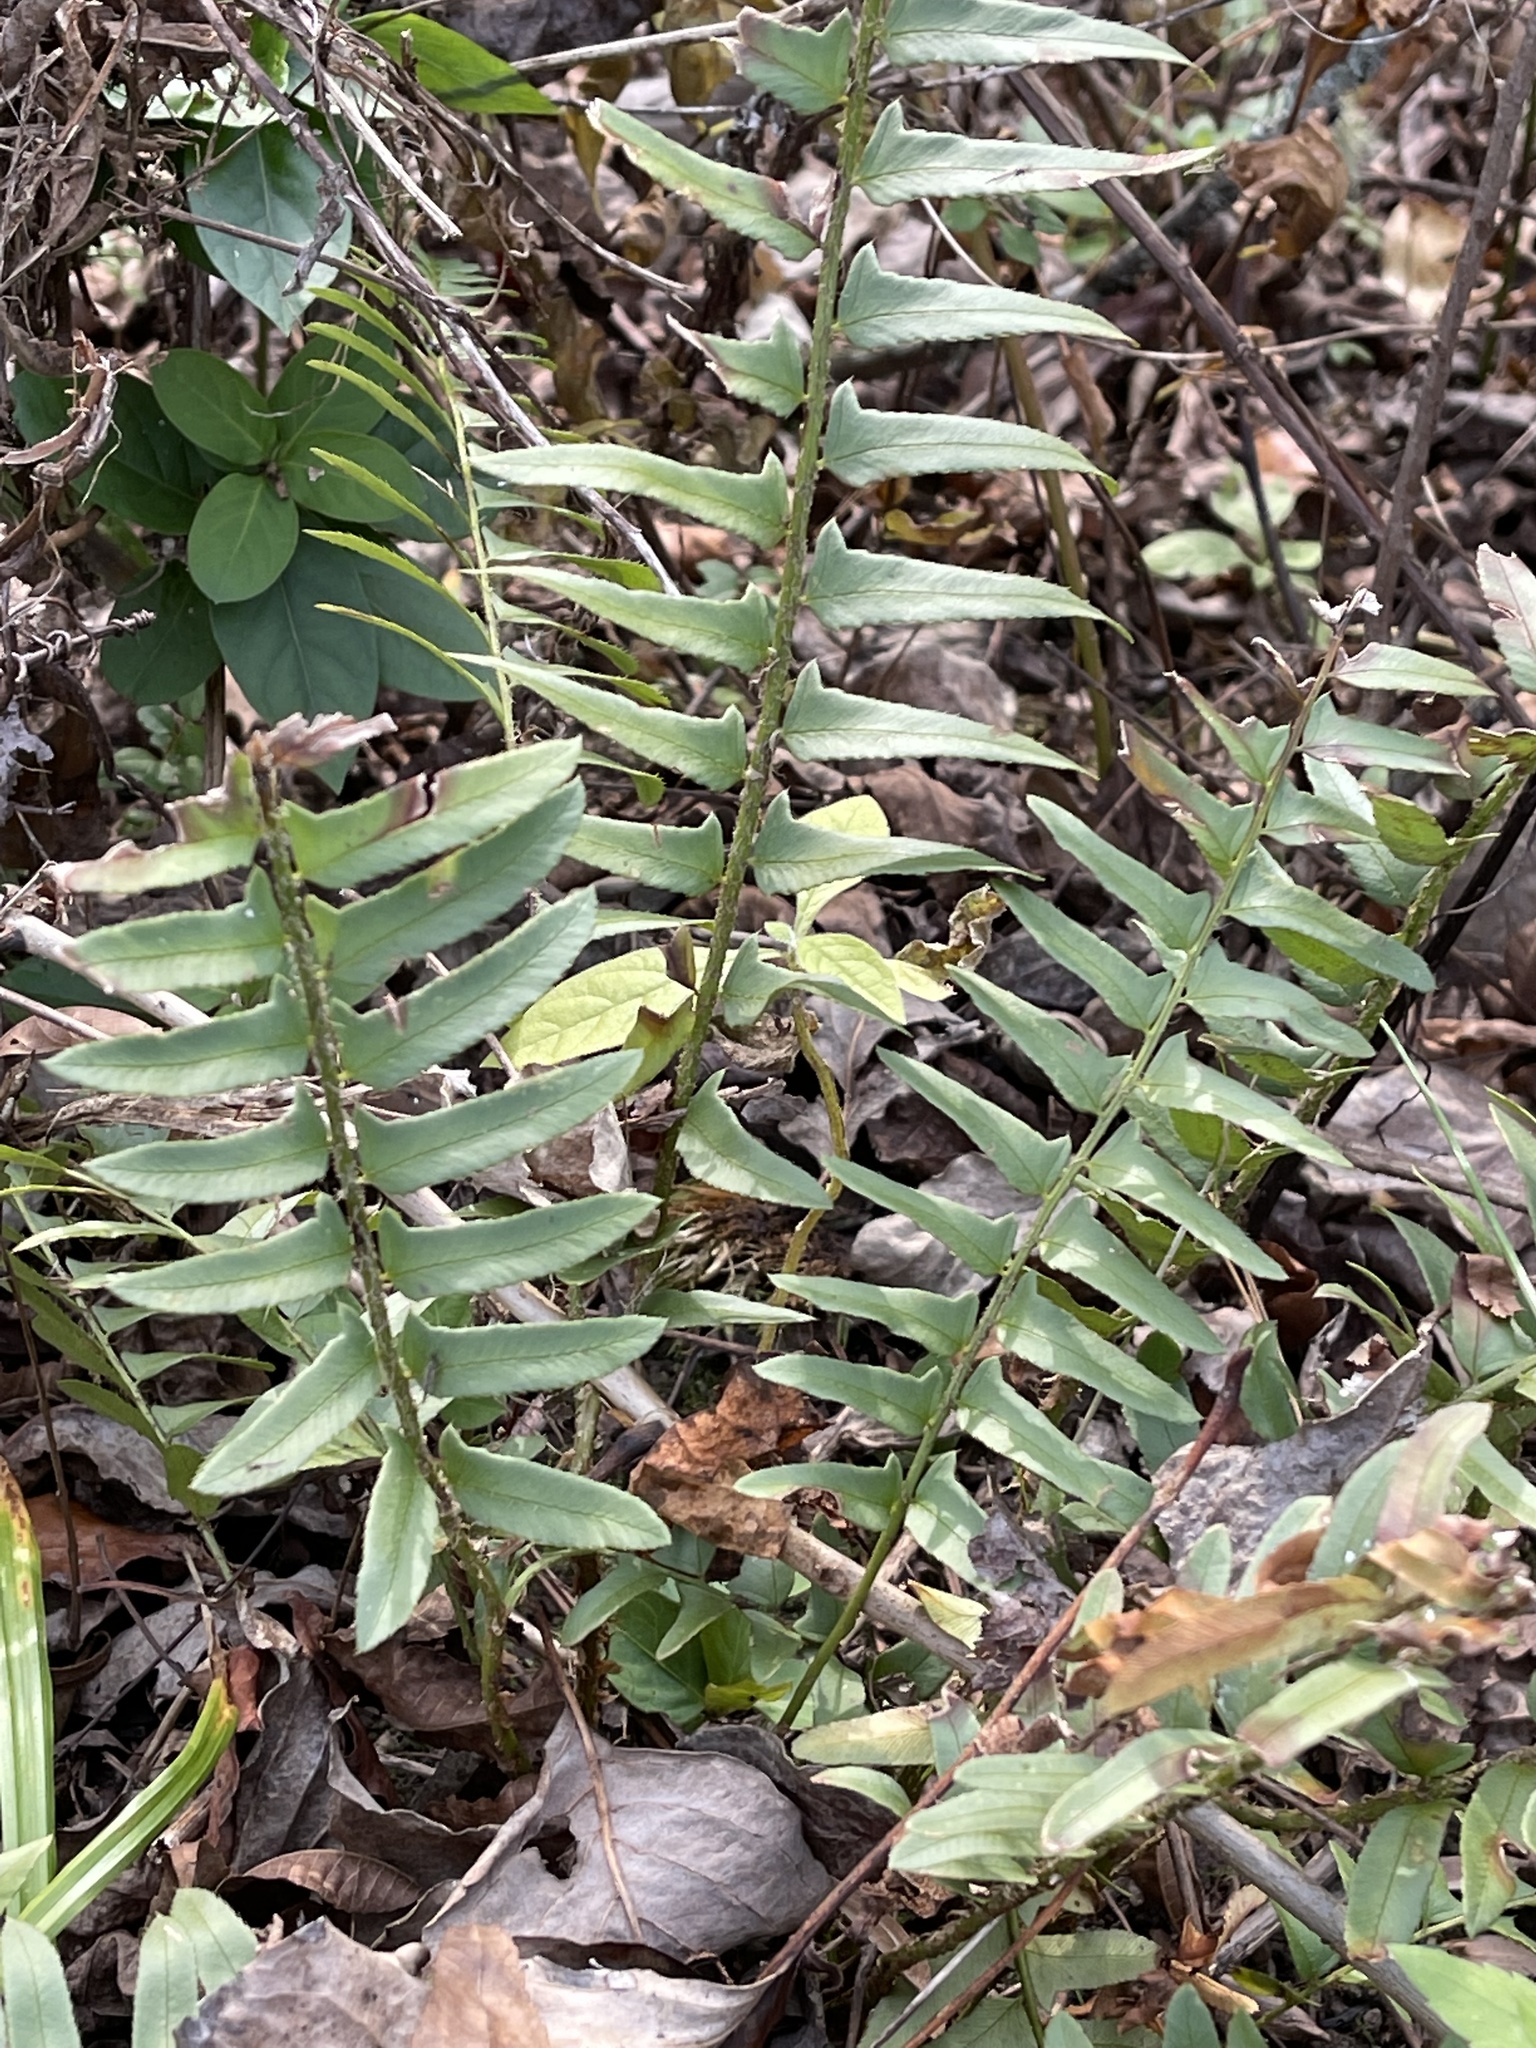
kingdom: Plantae
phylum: Tracheophyta
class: Polypodiopsida
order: Polypodiales
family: Dryopteridaceae
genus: Polystichum
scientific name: Polystichum acrostichoides
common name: Christmas fern
